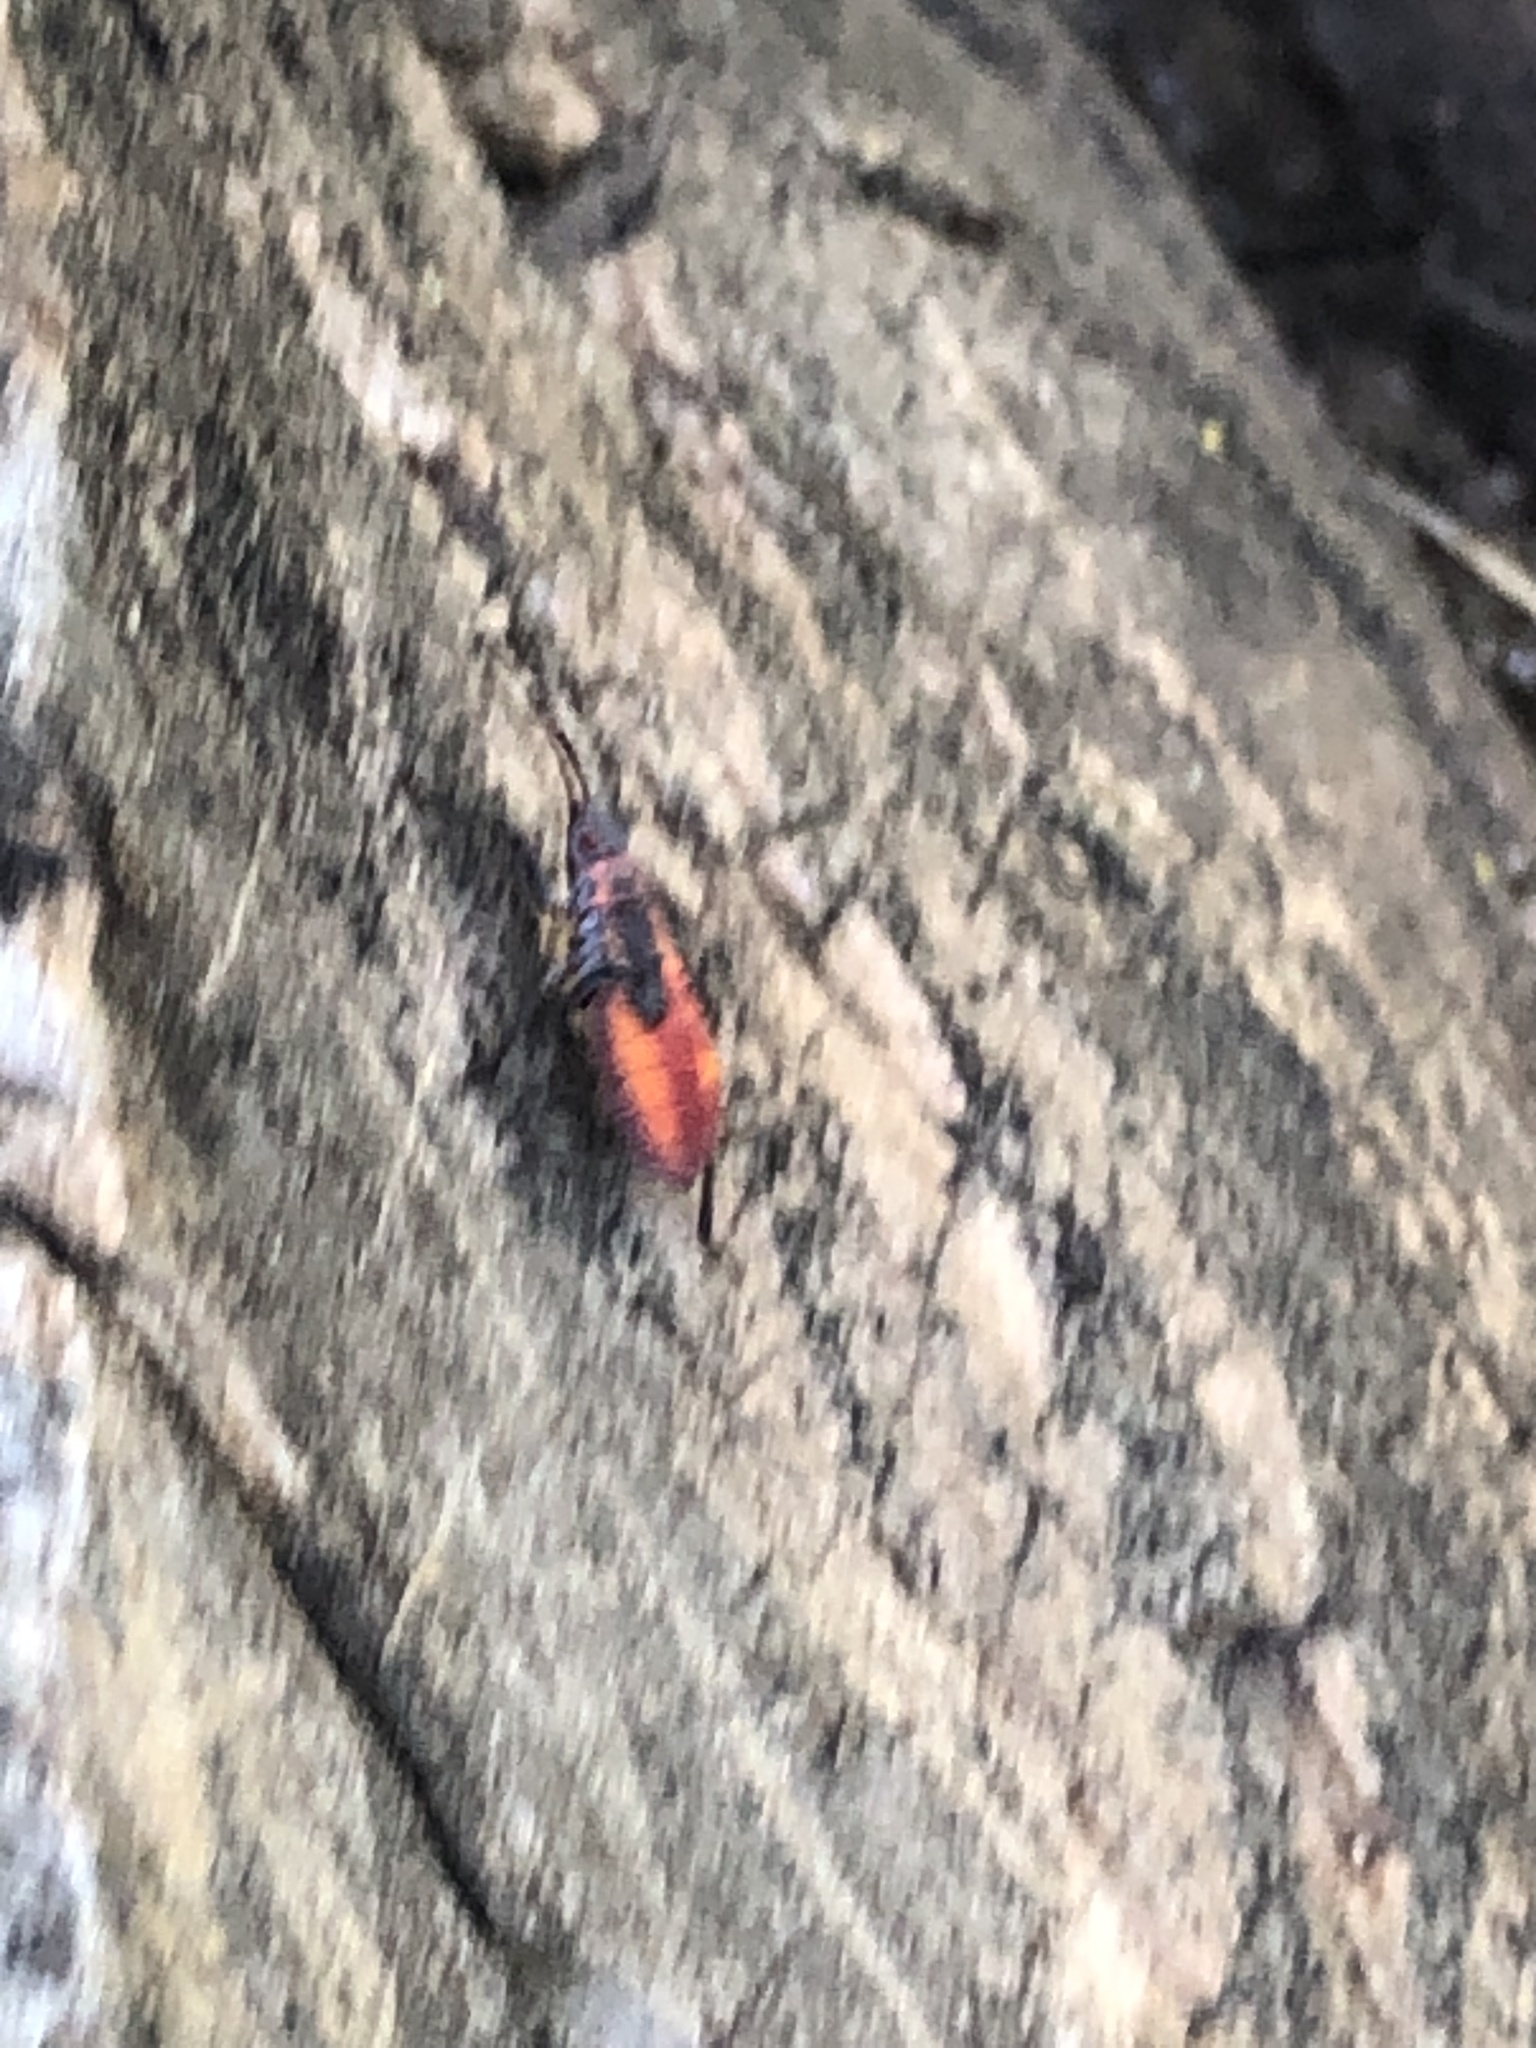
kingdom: Animalia
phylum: Arthropoda
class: Insecta
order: Hemiptera
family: Rhopalidae
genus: Boisea
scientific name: Boisea trivittata
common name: Boxelder bug
